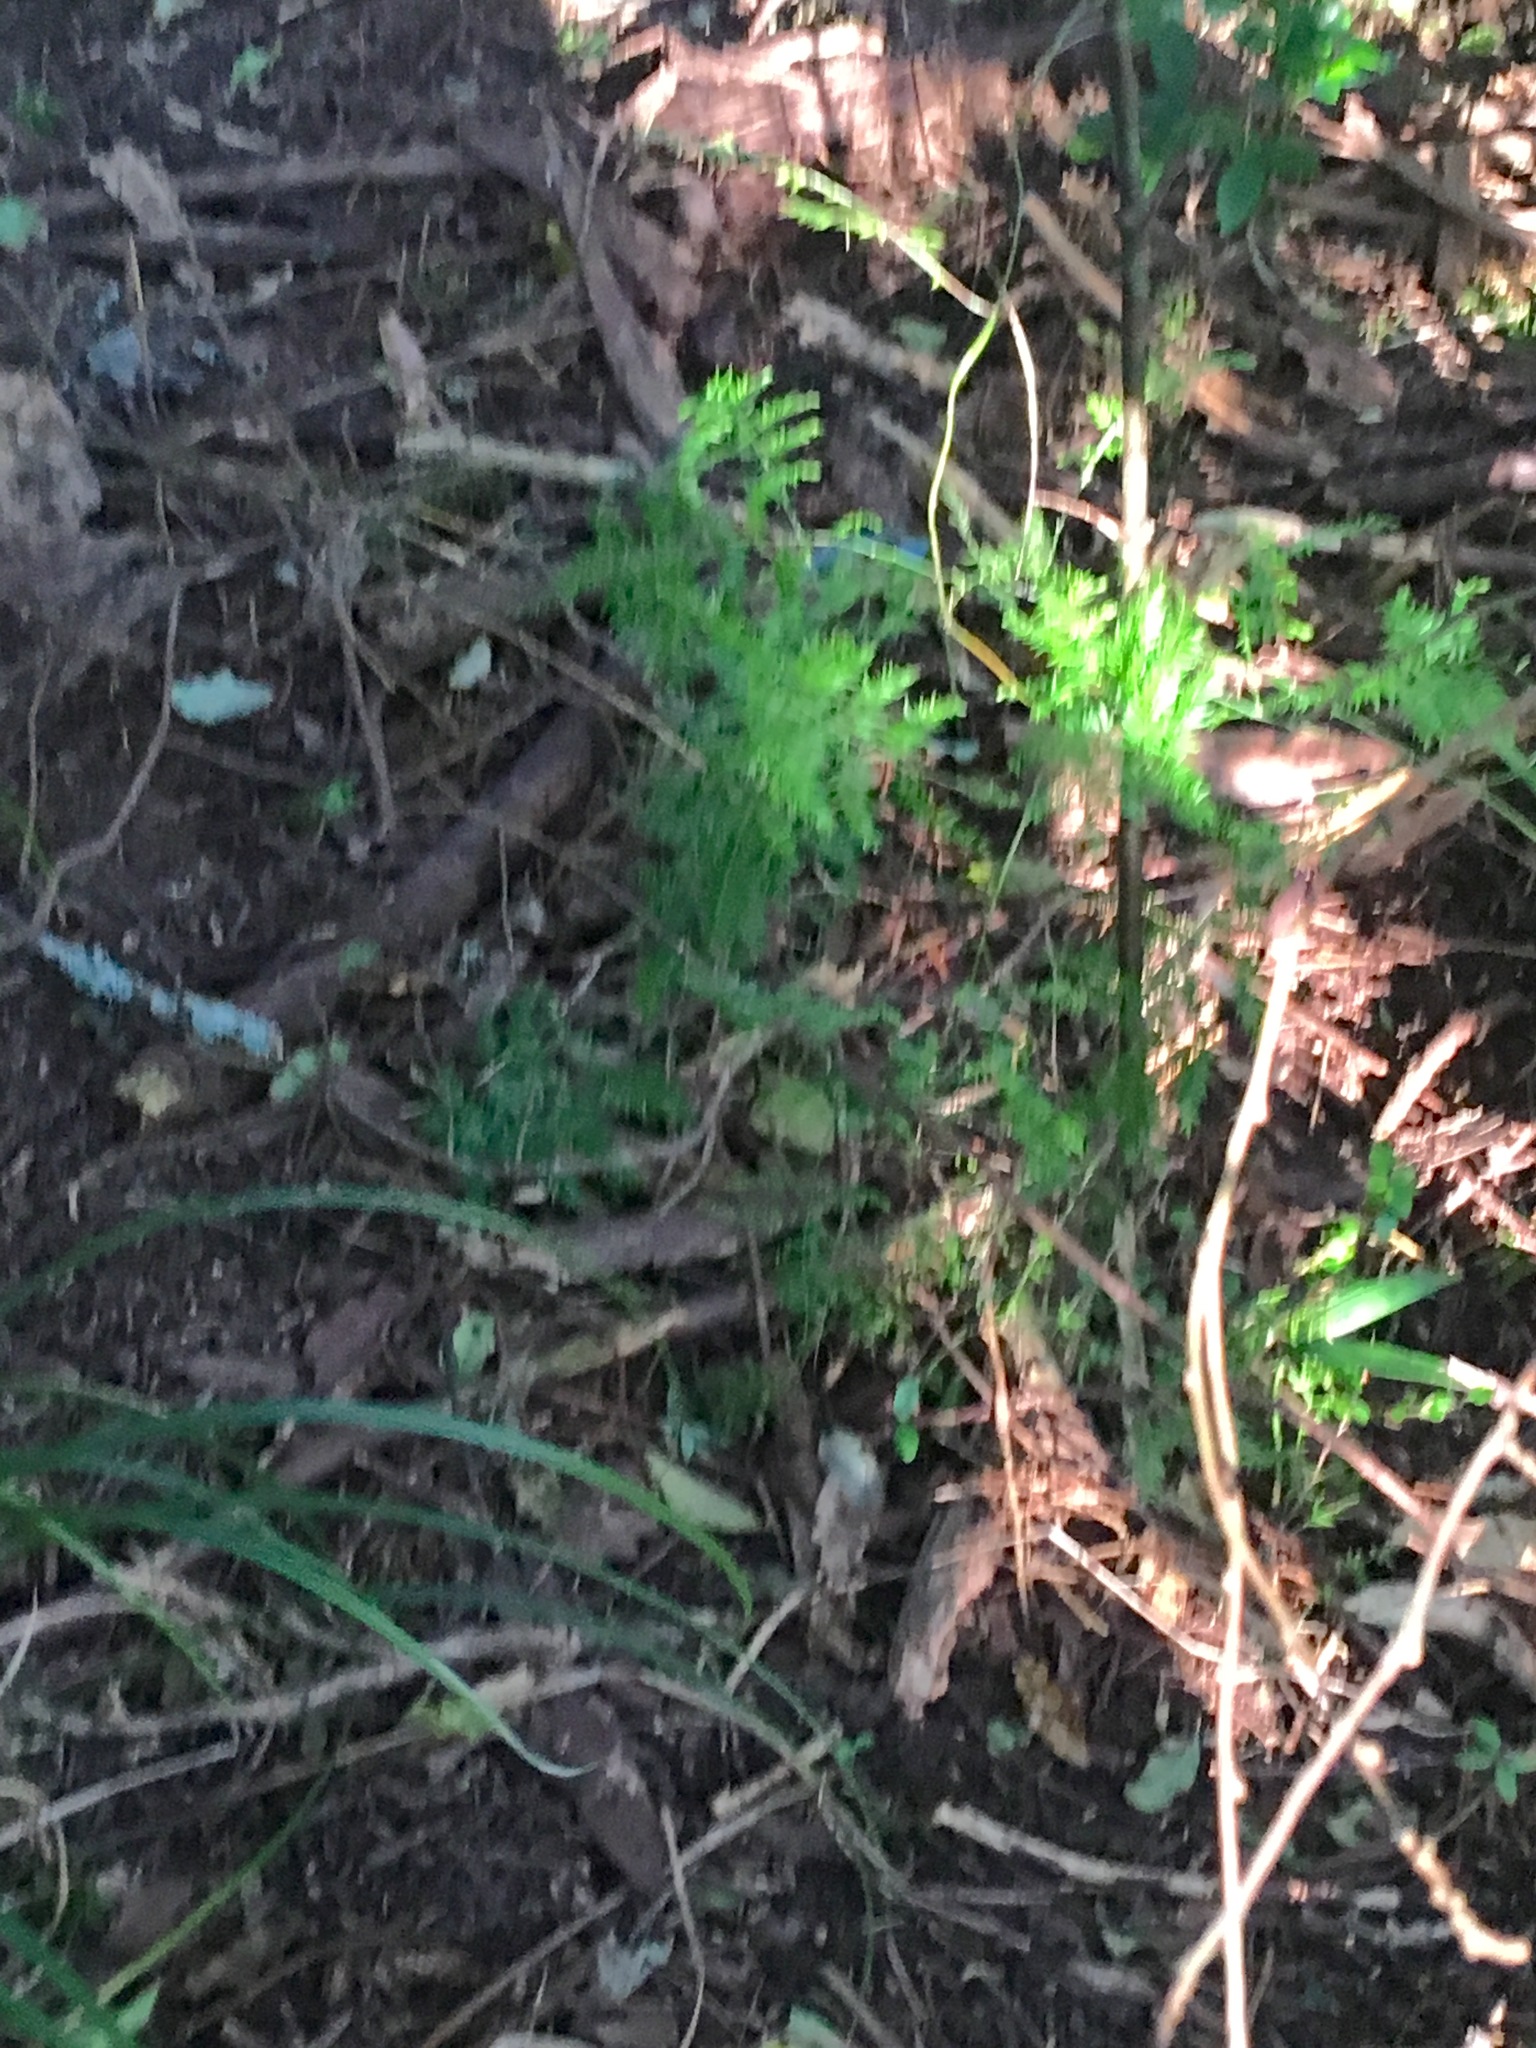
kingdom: Plantae
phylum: Tracheophyta
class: Liliopsida
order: Asparagales
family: Asparagaceae
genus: Asparagus
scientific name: Asparagus scandens
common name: Asparagus-fern
